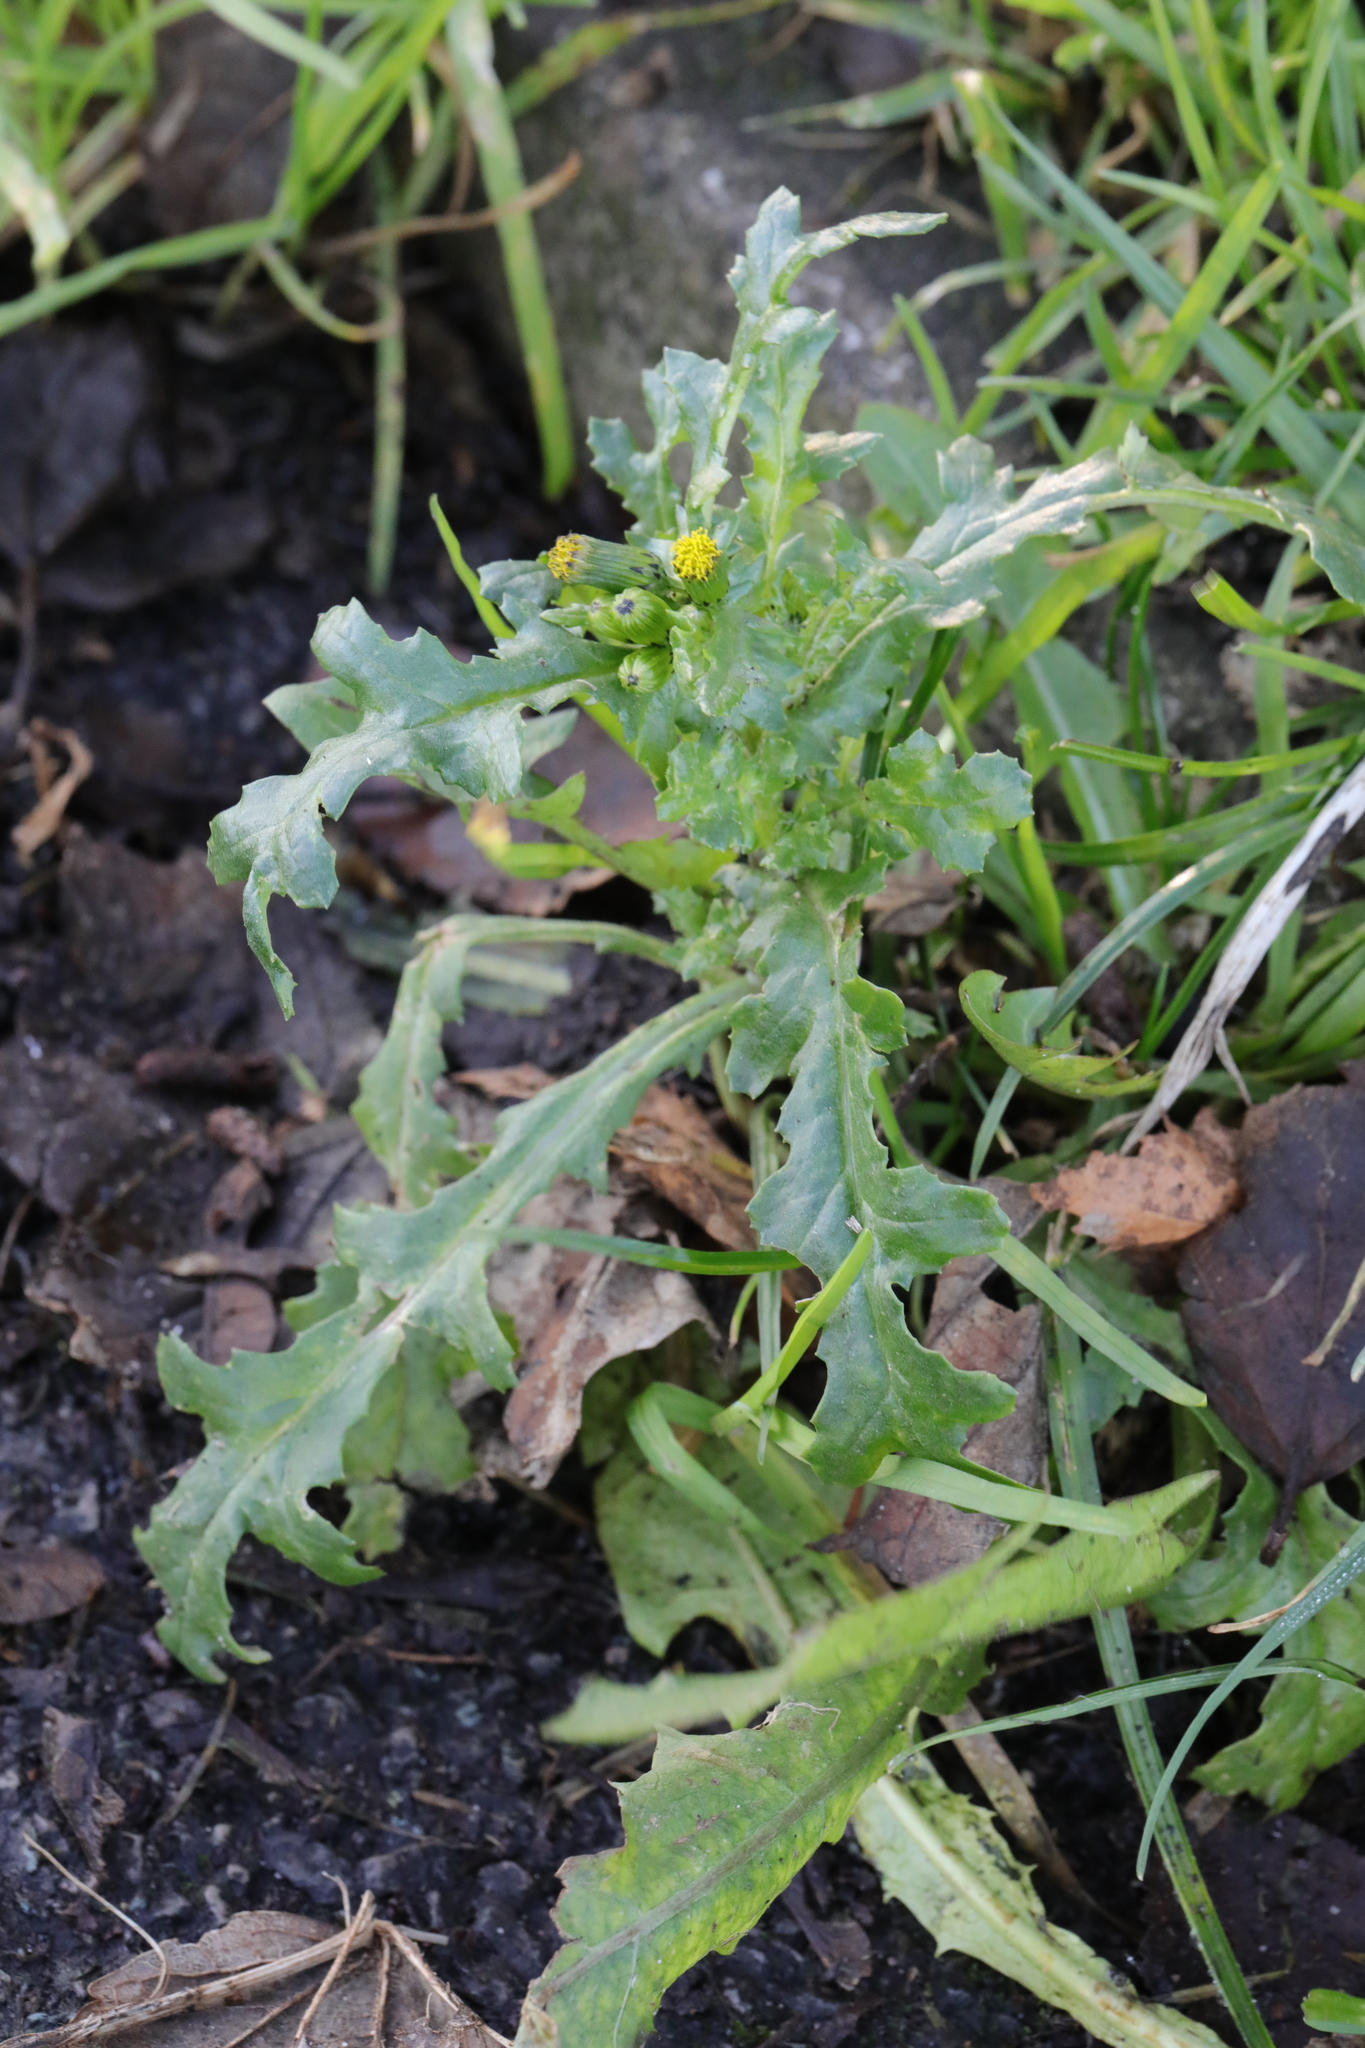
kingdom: Plantae
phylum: Tracheophyta
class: Magnoliopsida
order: Asterales
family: Asteraceae
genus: Senecio
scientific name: Senecio vulgaris
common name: Old-man-in-the-spring
